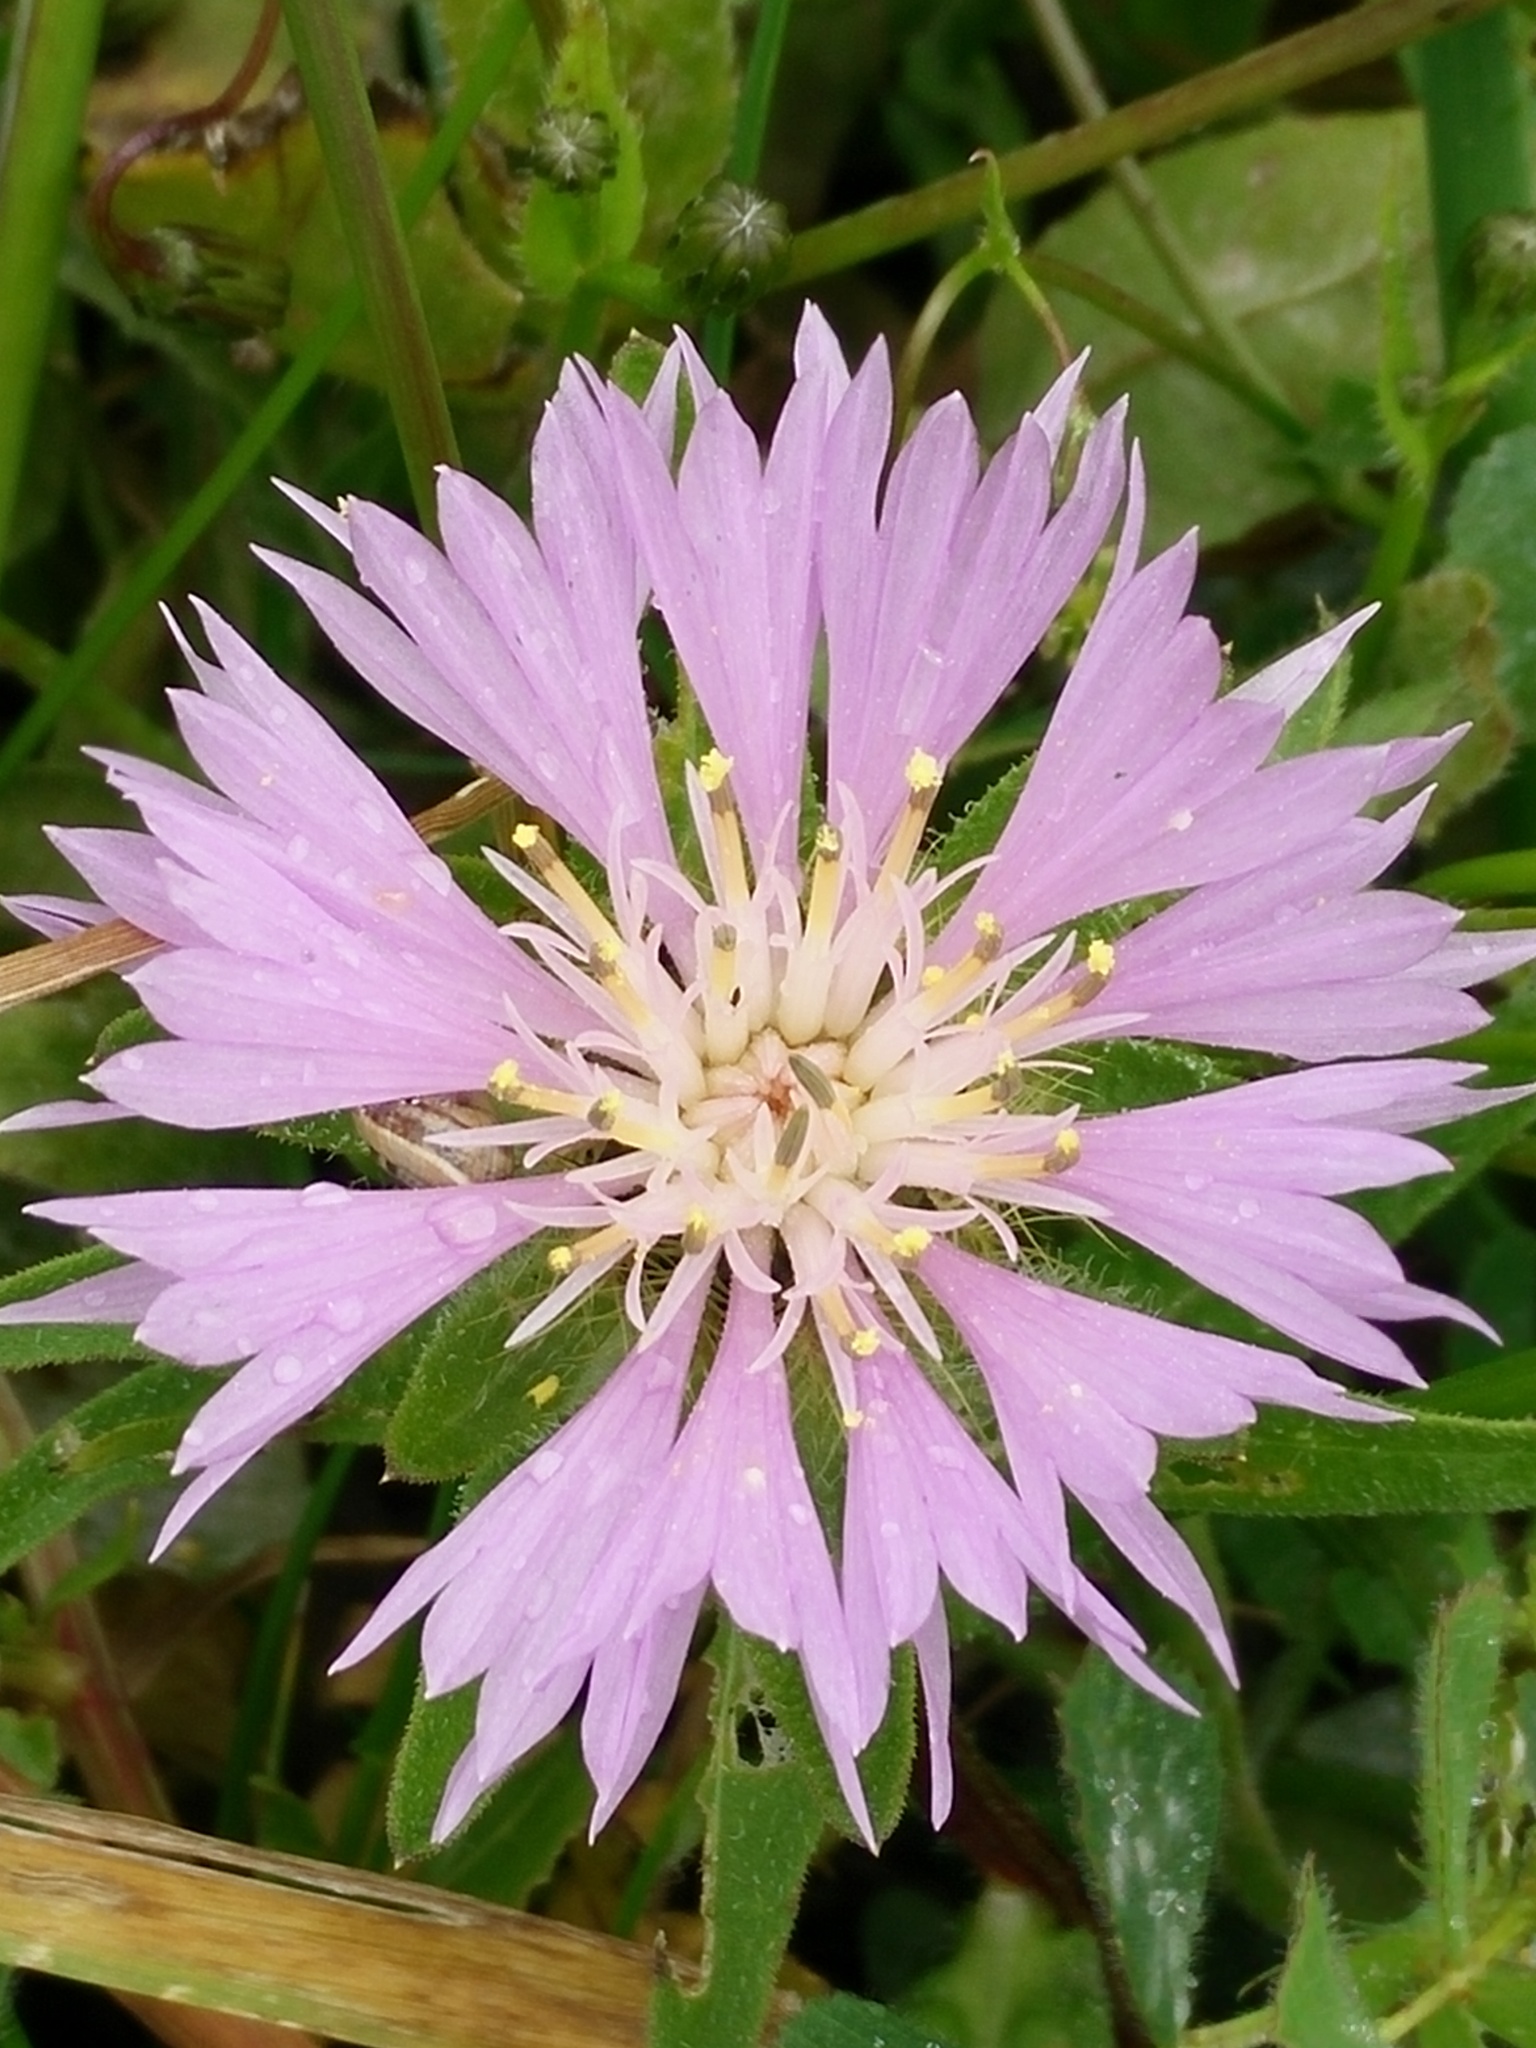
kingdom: Plantae
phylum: Tracheophyta
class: Magnoliopsida
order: Asterales
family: Asteraceae
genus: Centaurea
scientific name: Centaurea pullata
